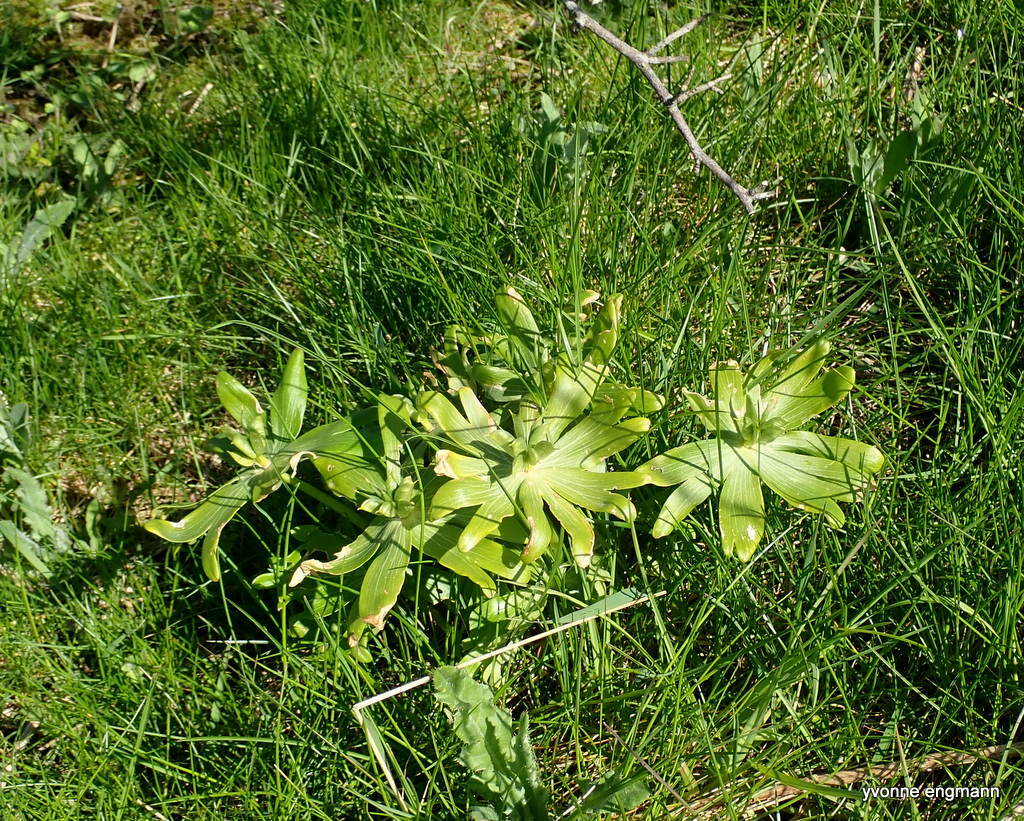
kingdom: Plantae
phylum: Tracheophyta
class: Magnoliopsida
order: Ranunculales
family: Ranunculaceae
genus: Eranthis
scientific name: Eranthis hyemalis
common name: Winter aconite
